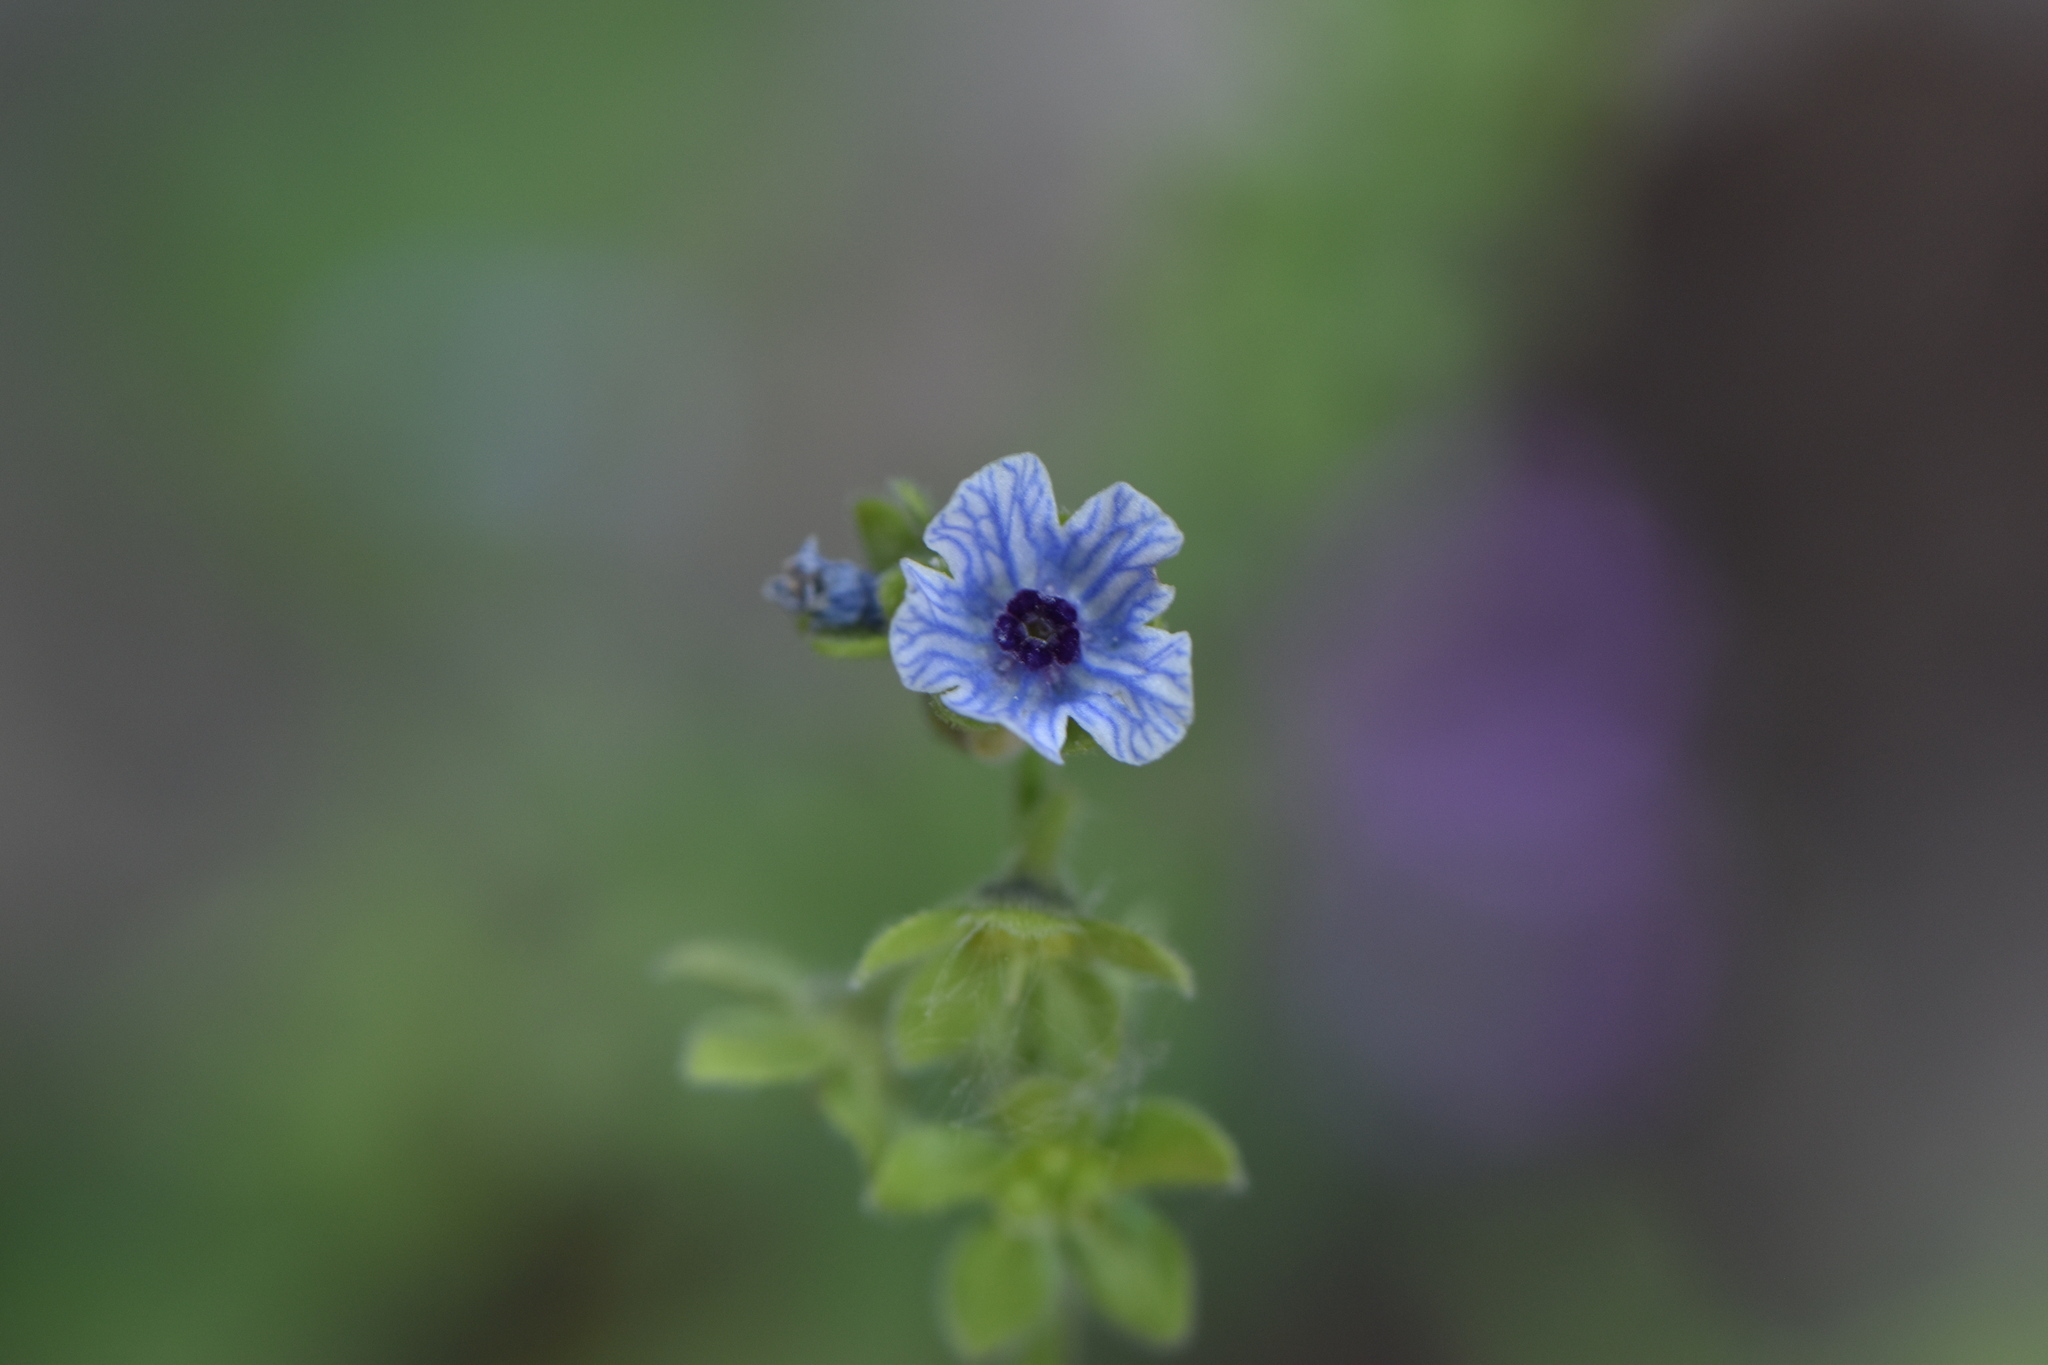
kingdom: Plantae
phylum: Tracheophyta
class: Magnoliopsida
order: Boraginales
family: Boraginaceae
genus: Cynoglossum
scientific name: Cynoglossum creticum
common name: Blue hound's tongue
